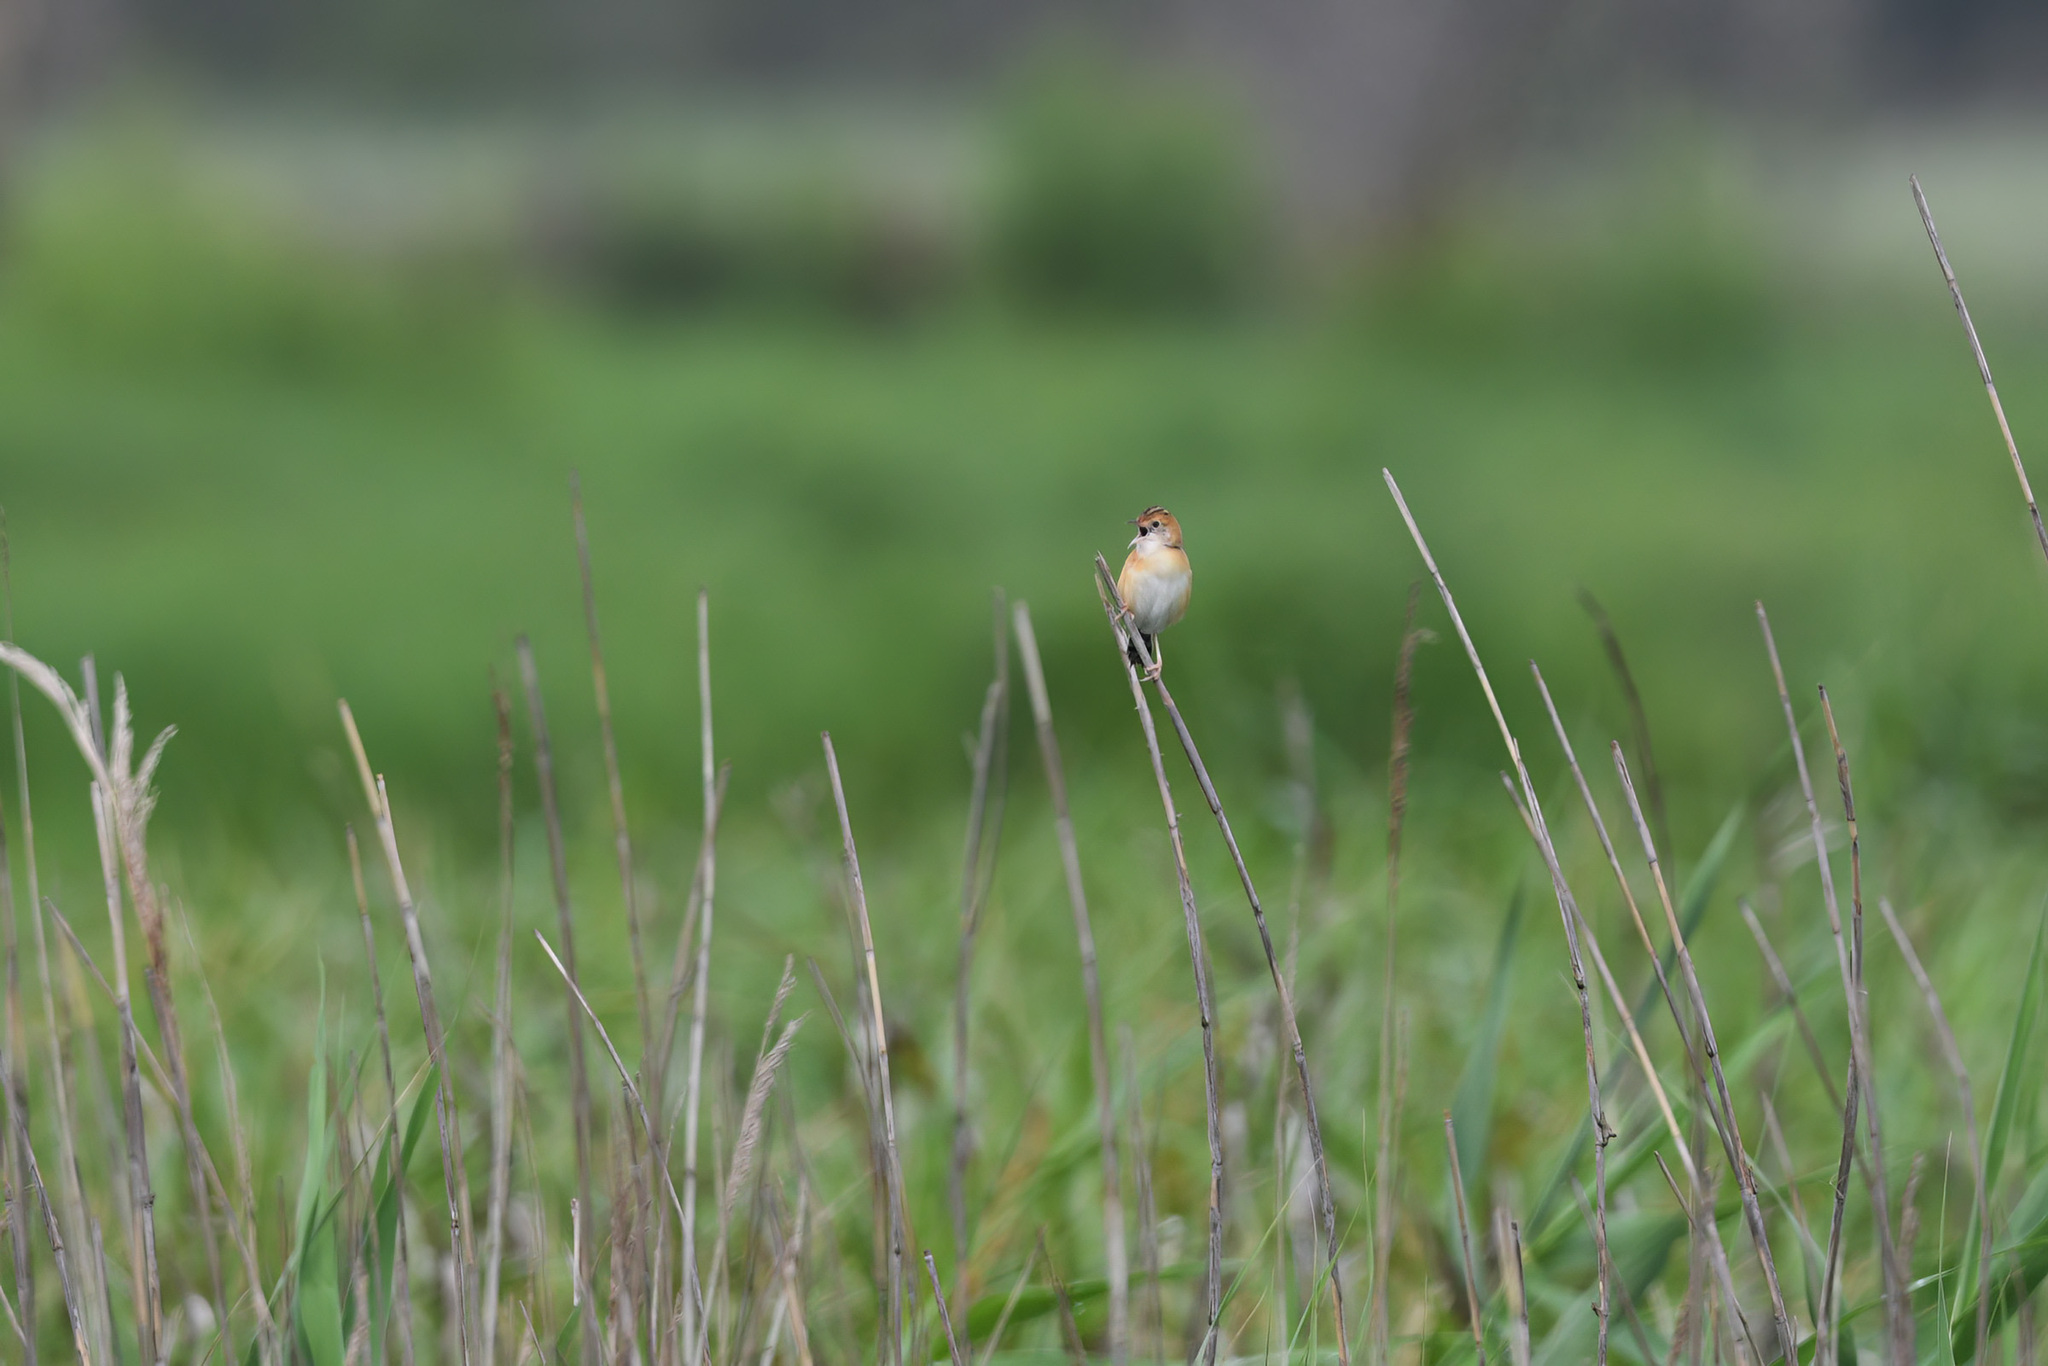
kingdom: Animalia
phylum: Chordata
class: Aves
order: Passeriformes
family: Cisticolidae
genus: Cisticola
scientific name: Cisticola exilis
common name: Golden-headed cisticola
